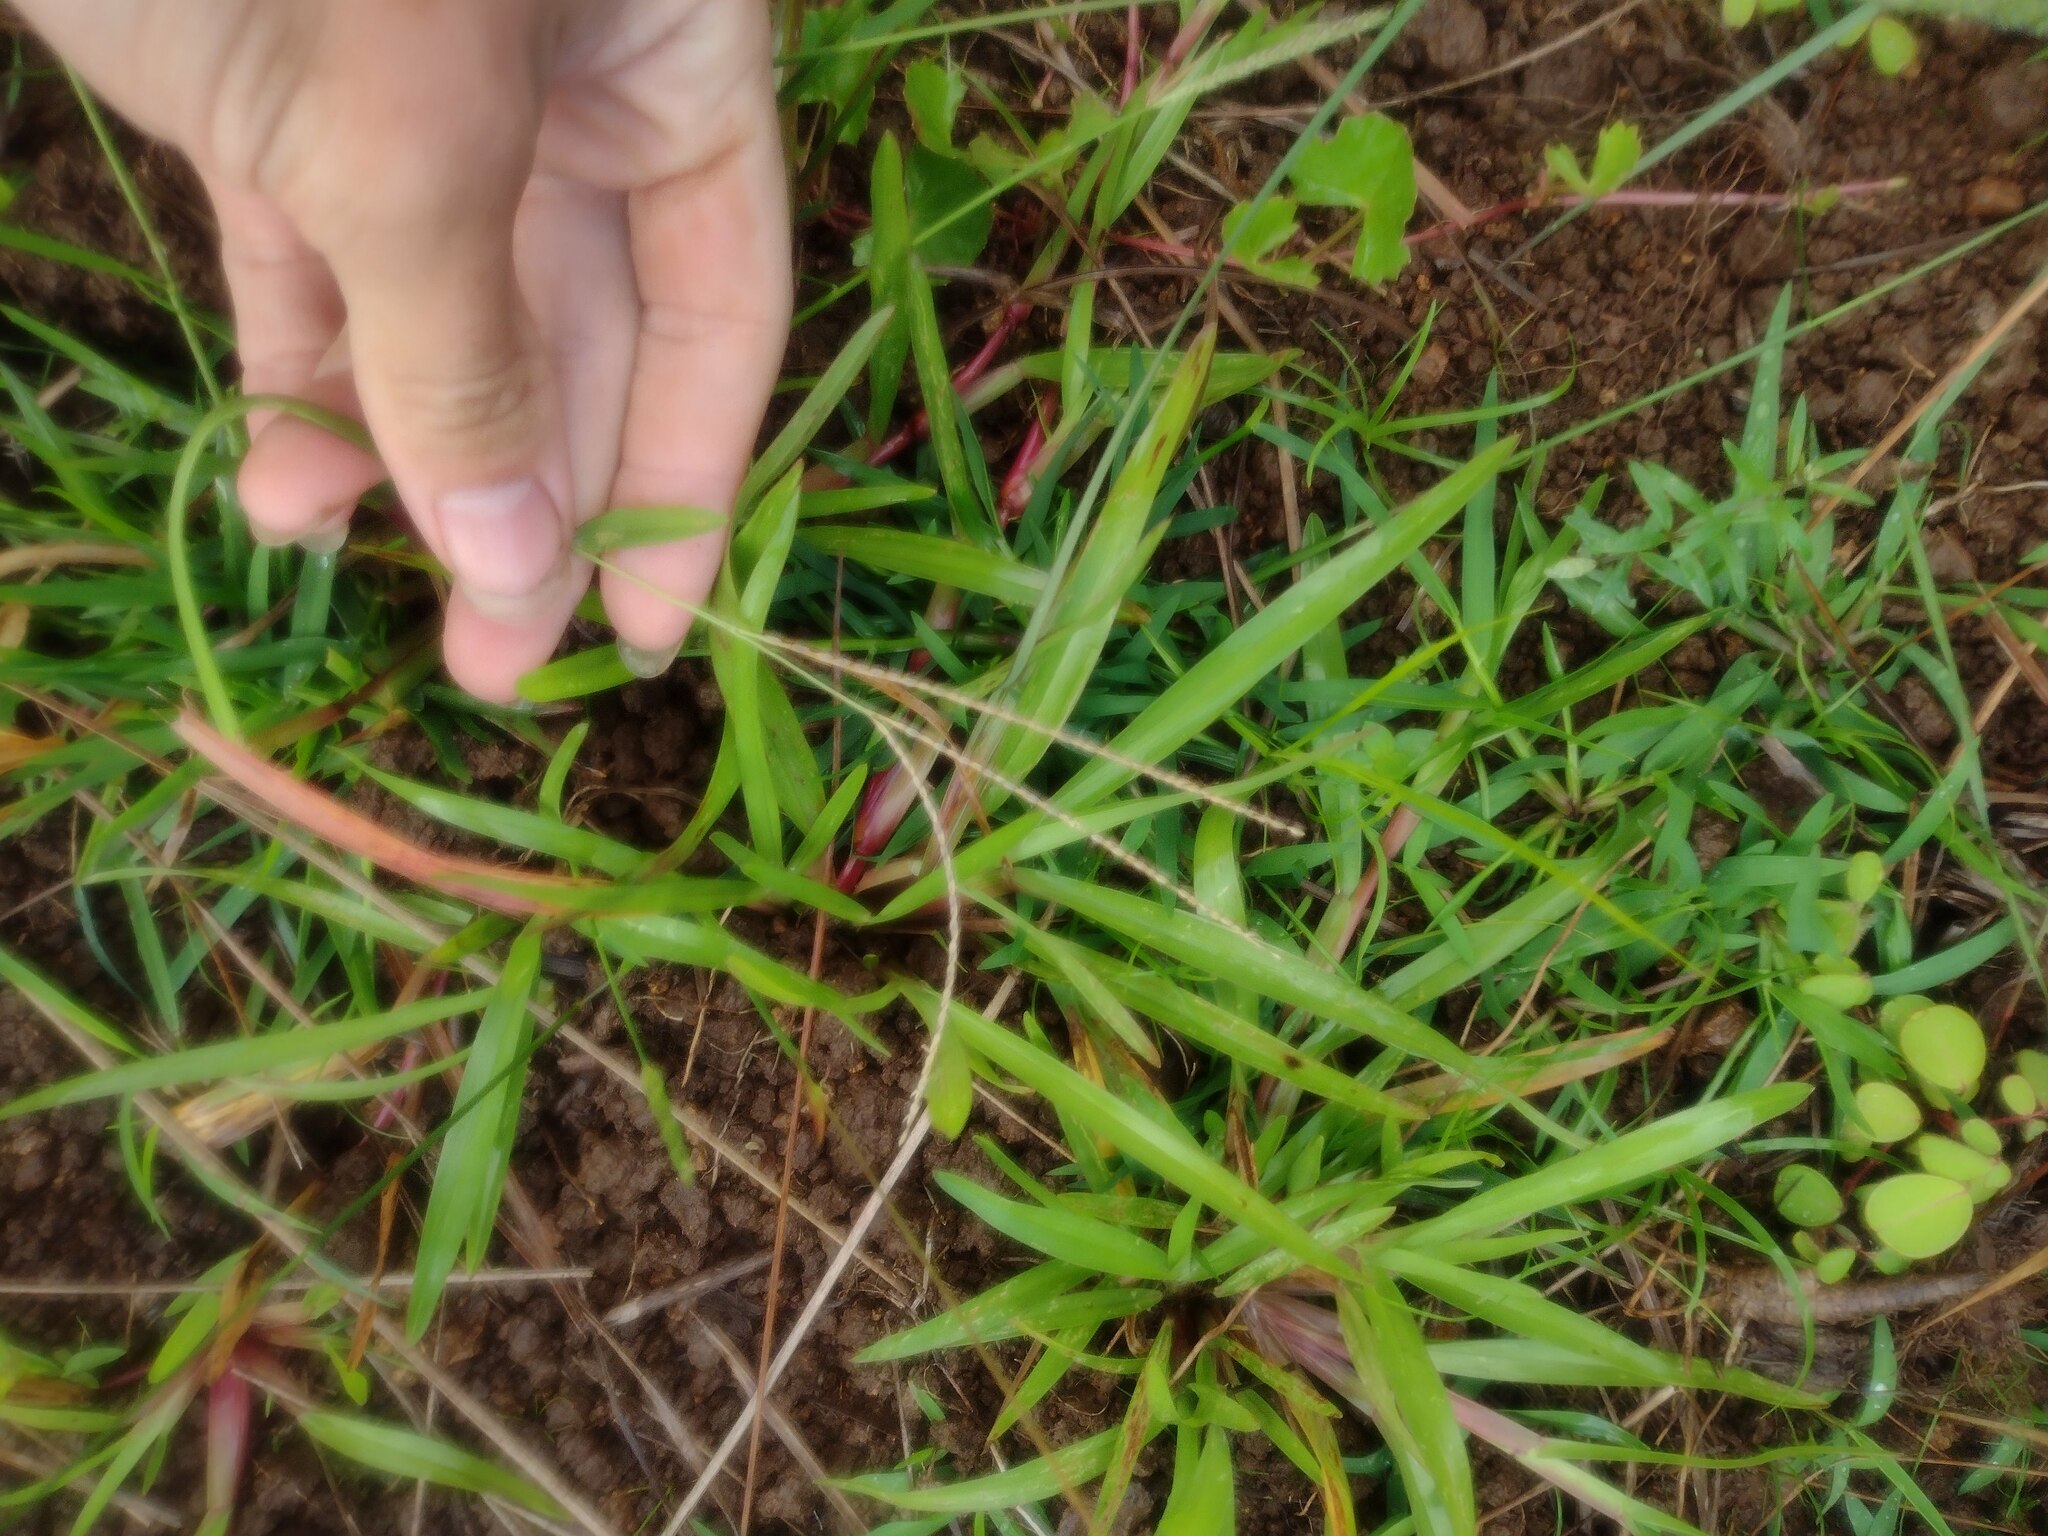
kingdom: Plantae
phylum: Tracheophyta
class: Liliopsida
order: Poales
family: Poaceae
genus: Axonopus
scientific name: Axonopus fissifolius
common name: Common carpetgrass
